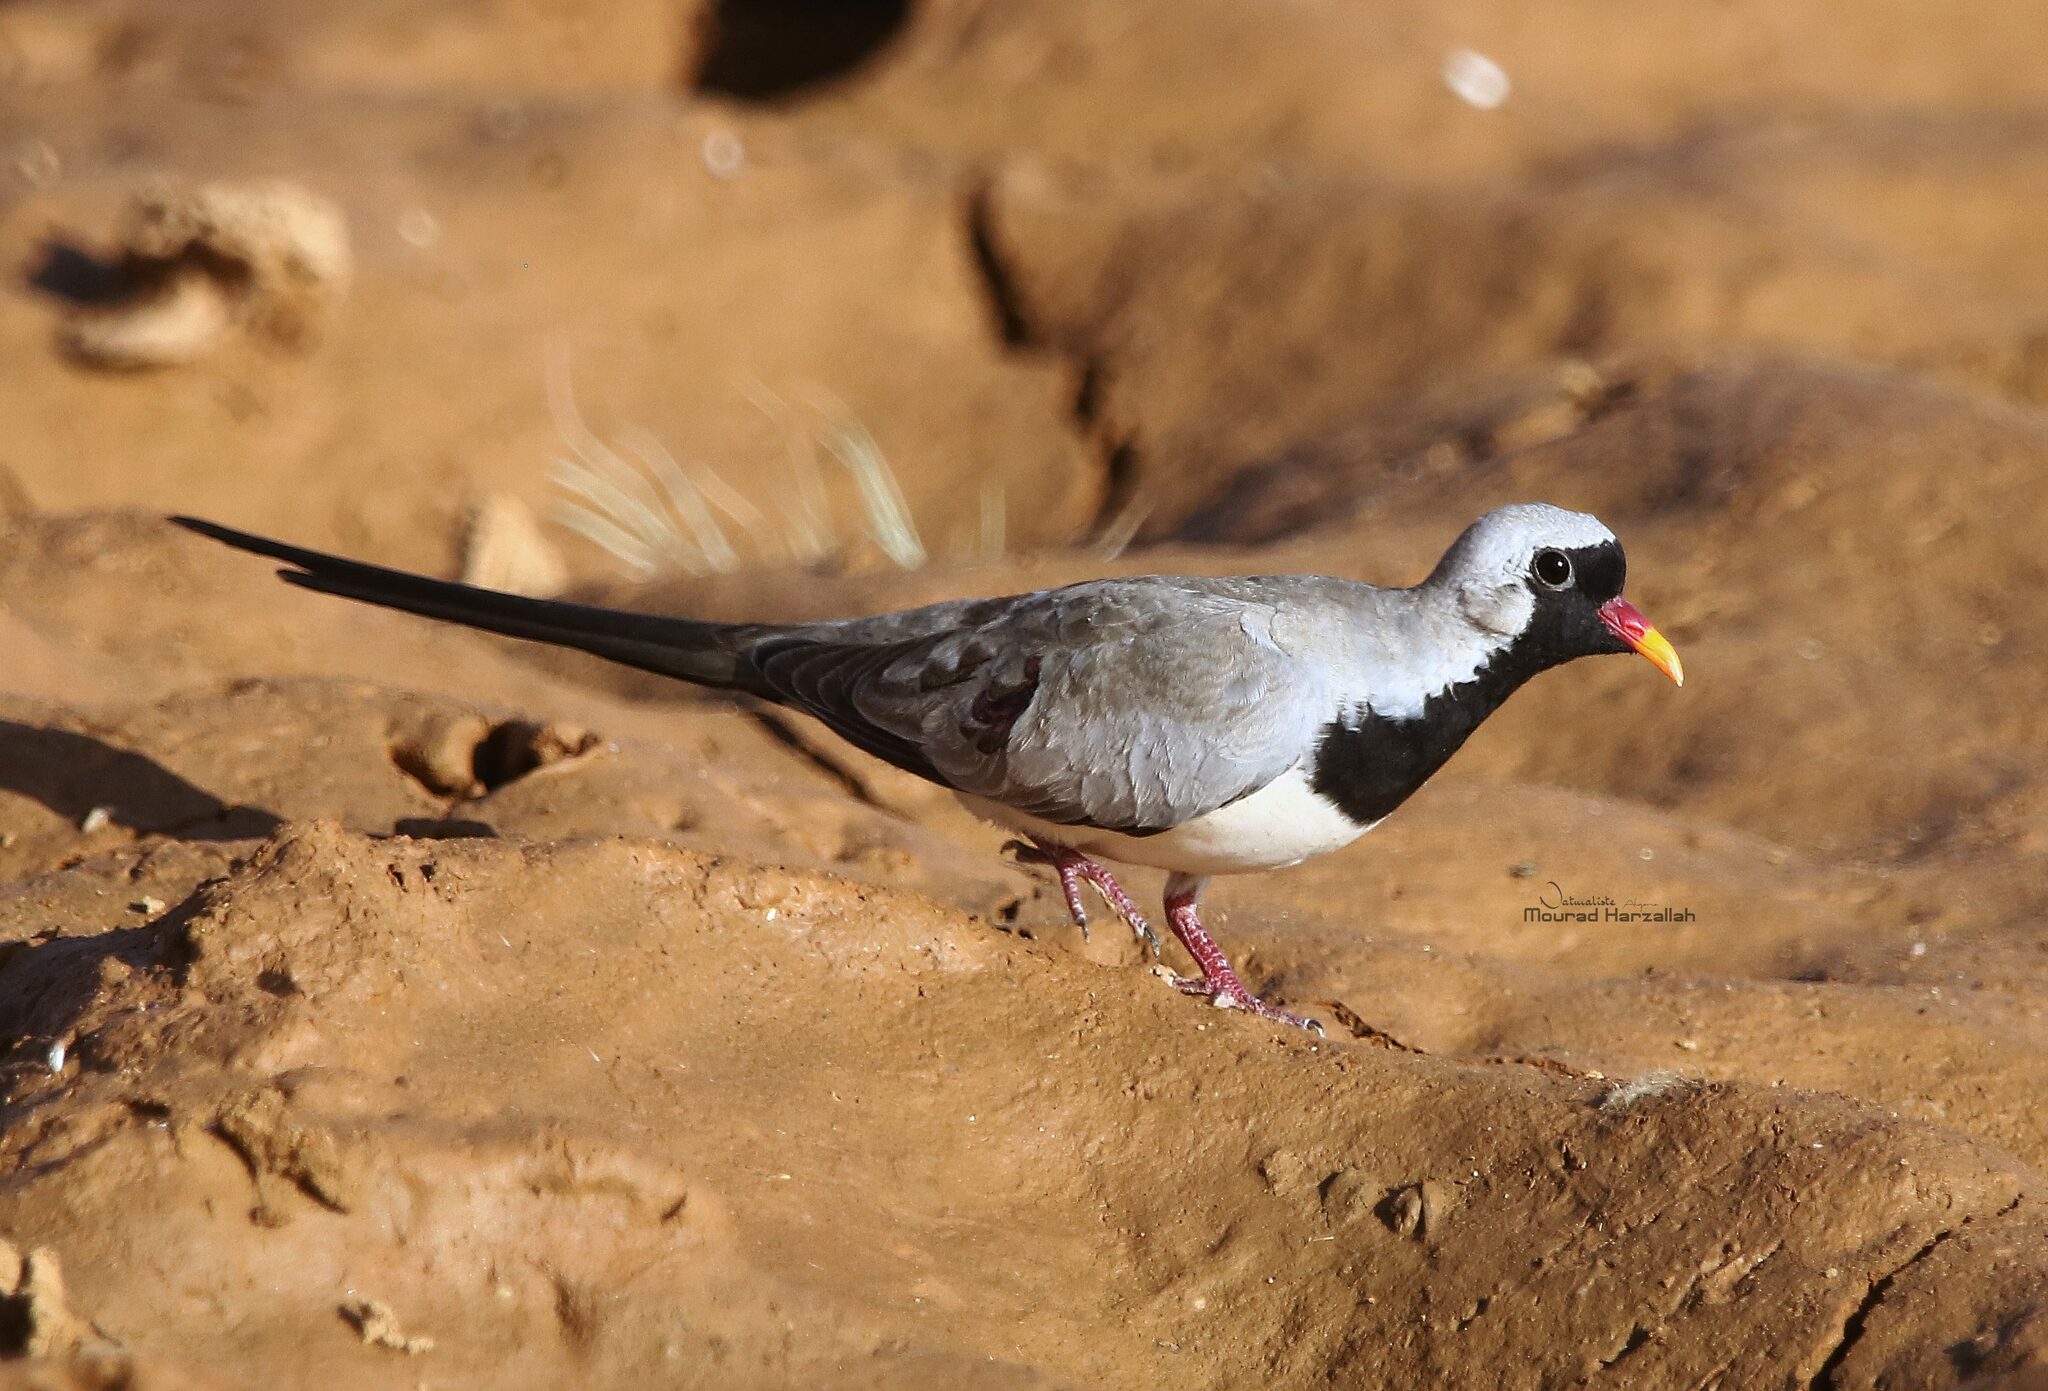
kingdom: Animalia
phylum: Chordata
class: Aves
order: Columbiformes
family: Columbidae
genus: Oena
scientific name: Oena capensis
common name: Namaqua dove
